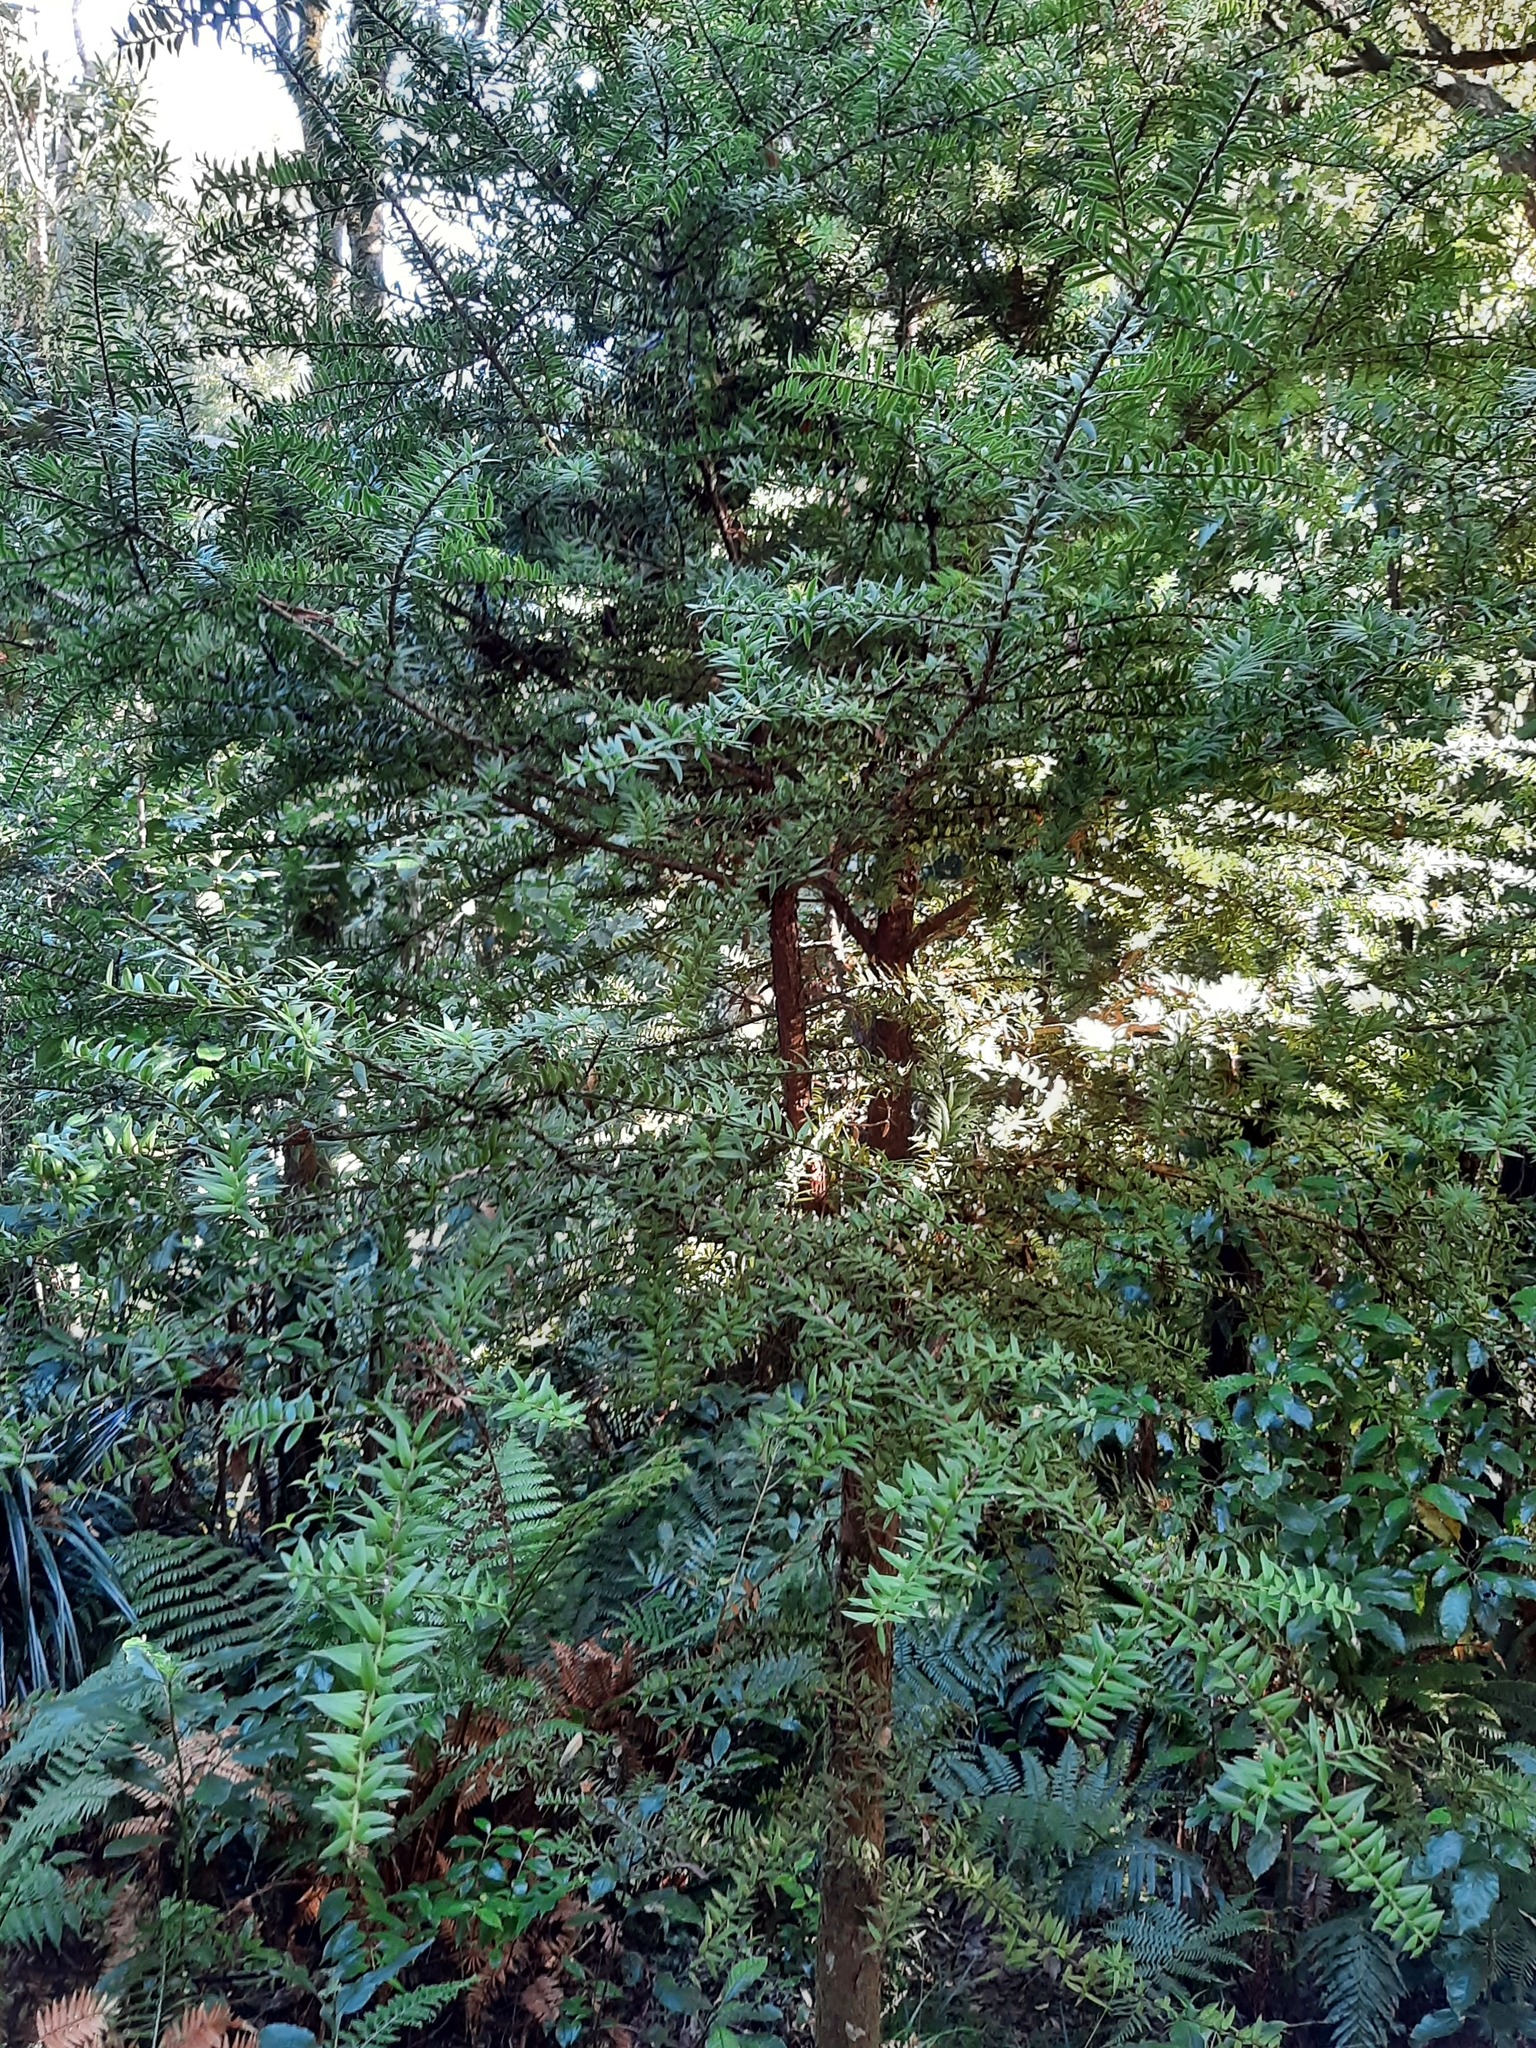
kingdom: Plantae
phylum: Tracheophyta
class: Pinopsida
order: Pinales
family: Podocarpaceae
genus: Podocarpus
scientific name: Podocarpus laetus
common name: Hall's totara
